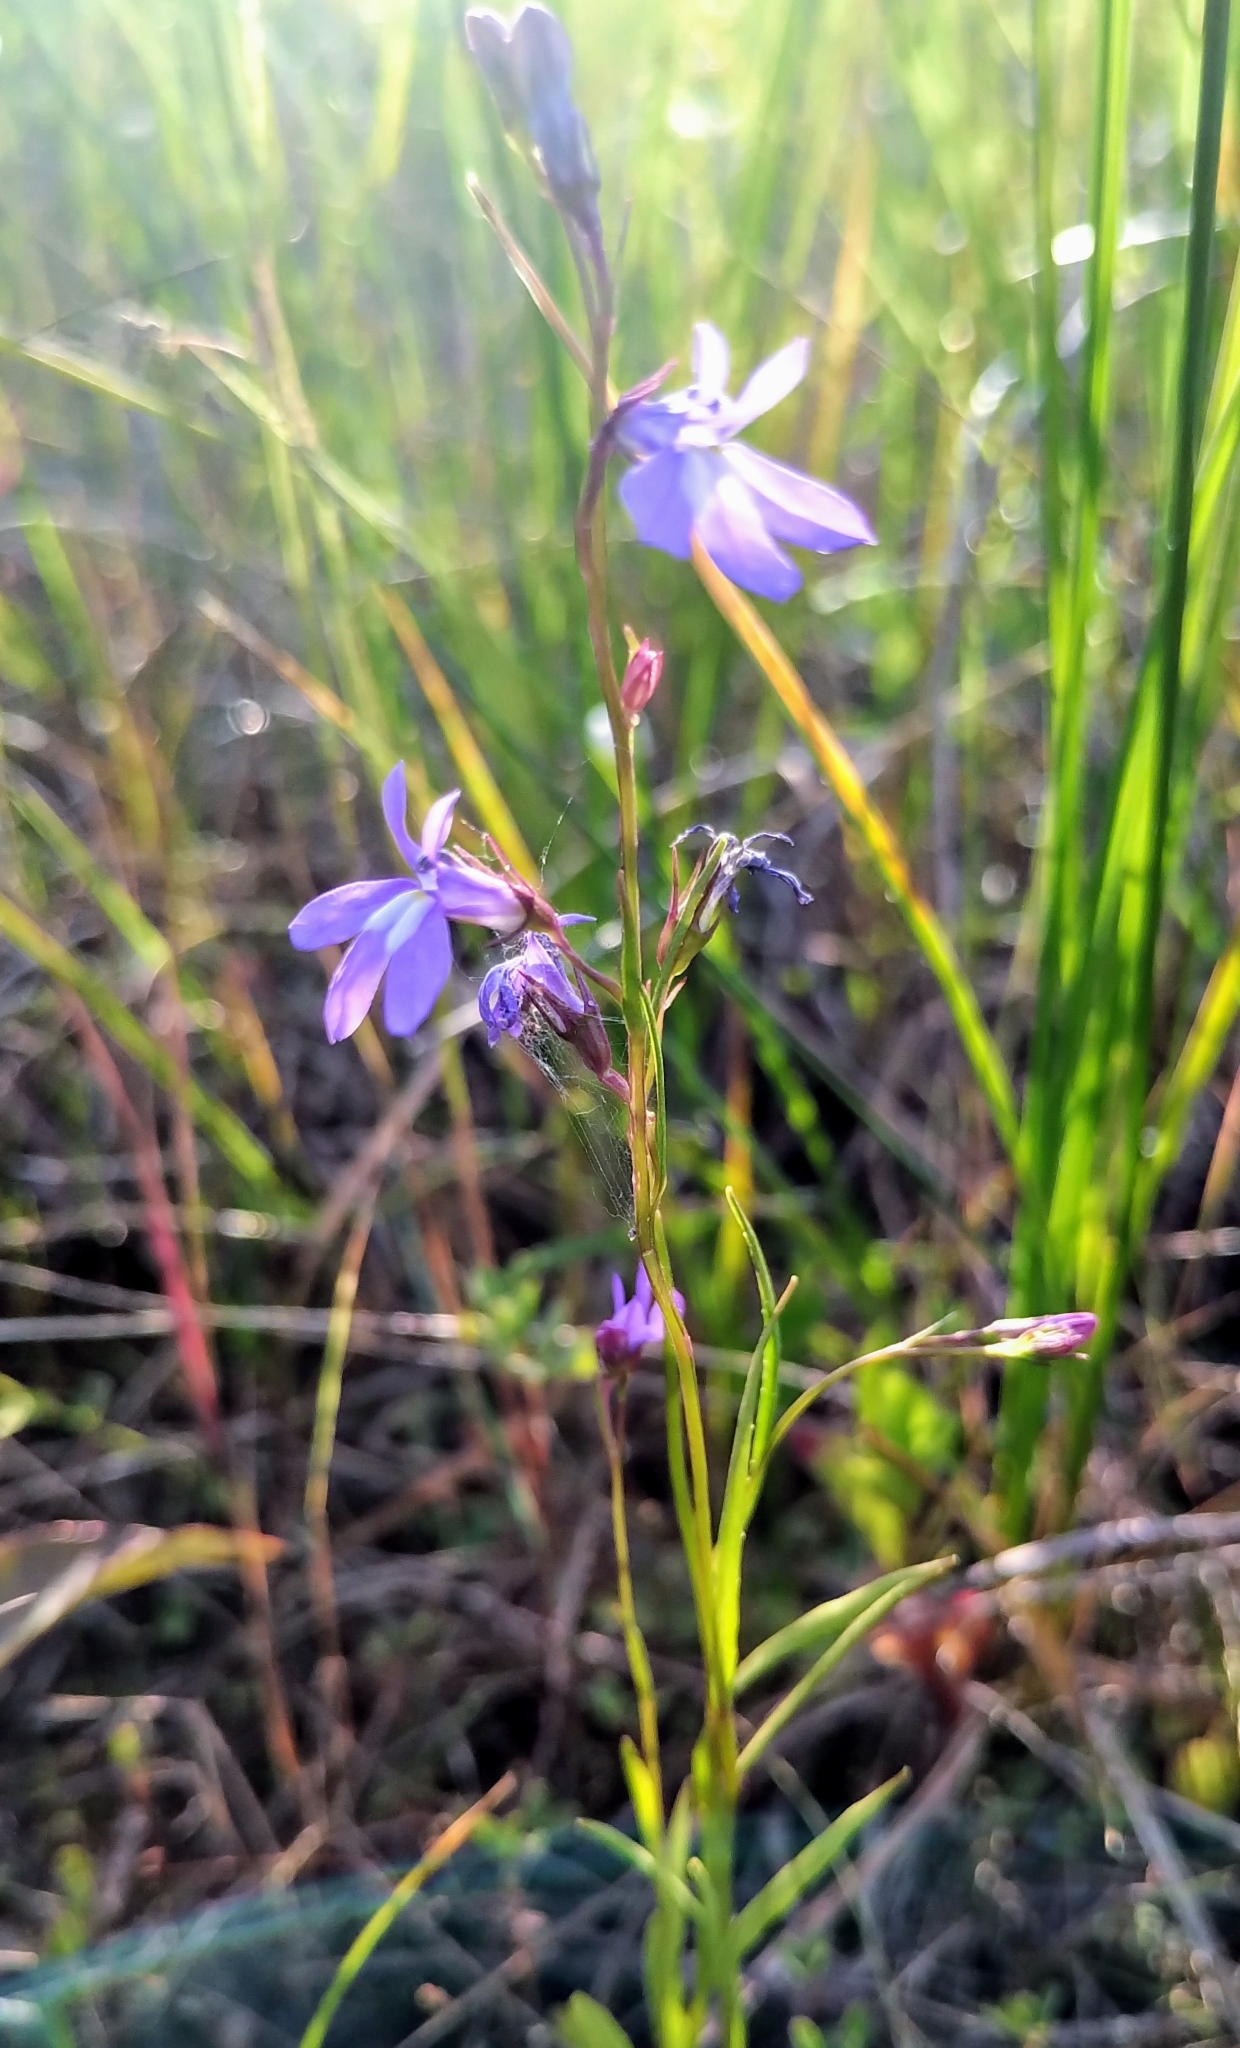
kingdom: Plantae
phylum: Tracheophyta
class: Magnoliopsida
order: Asterales
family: Campanulaceae
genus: Lobelia
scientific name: Lobelia kalmii
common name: Kalm's lobelia
